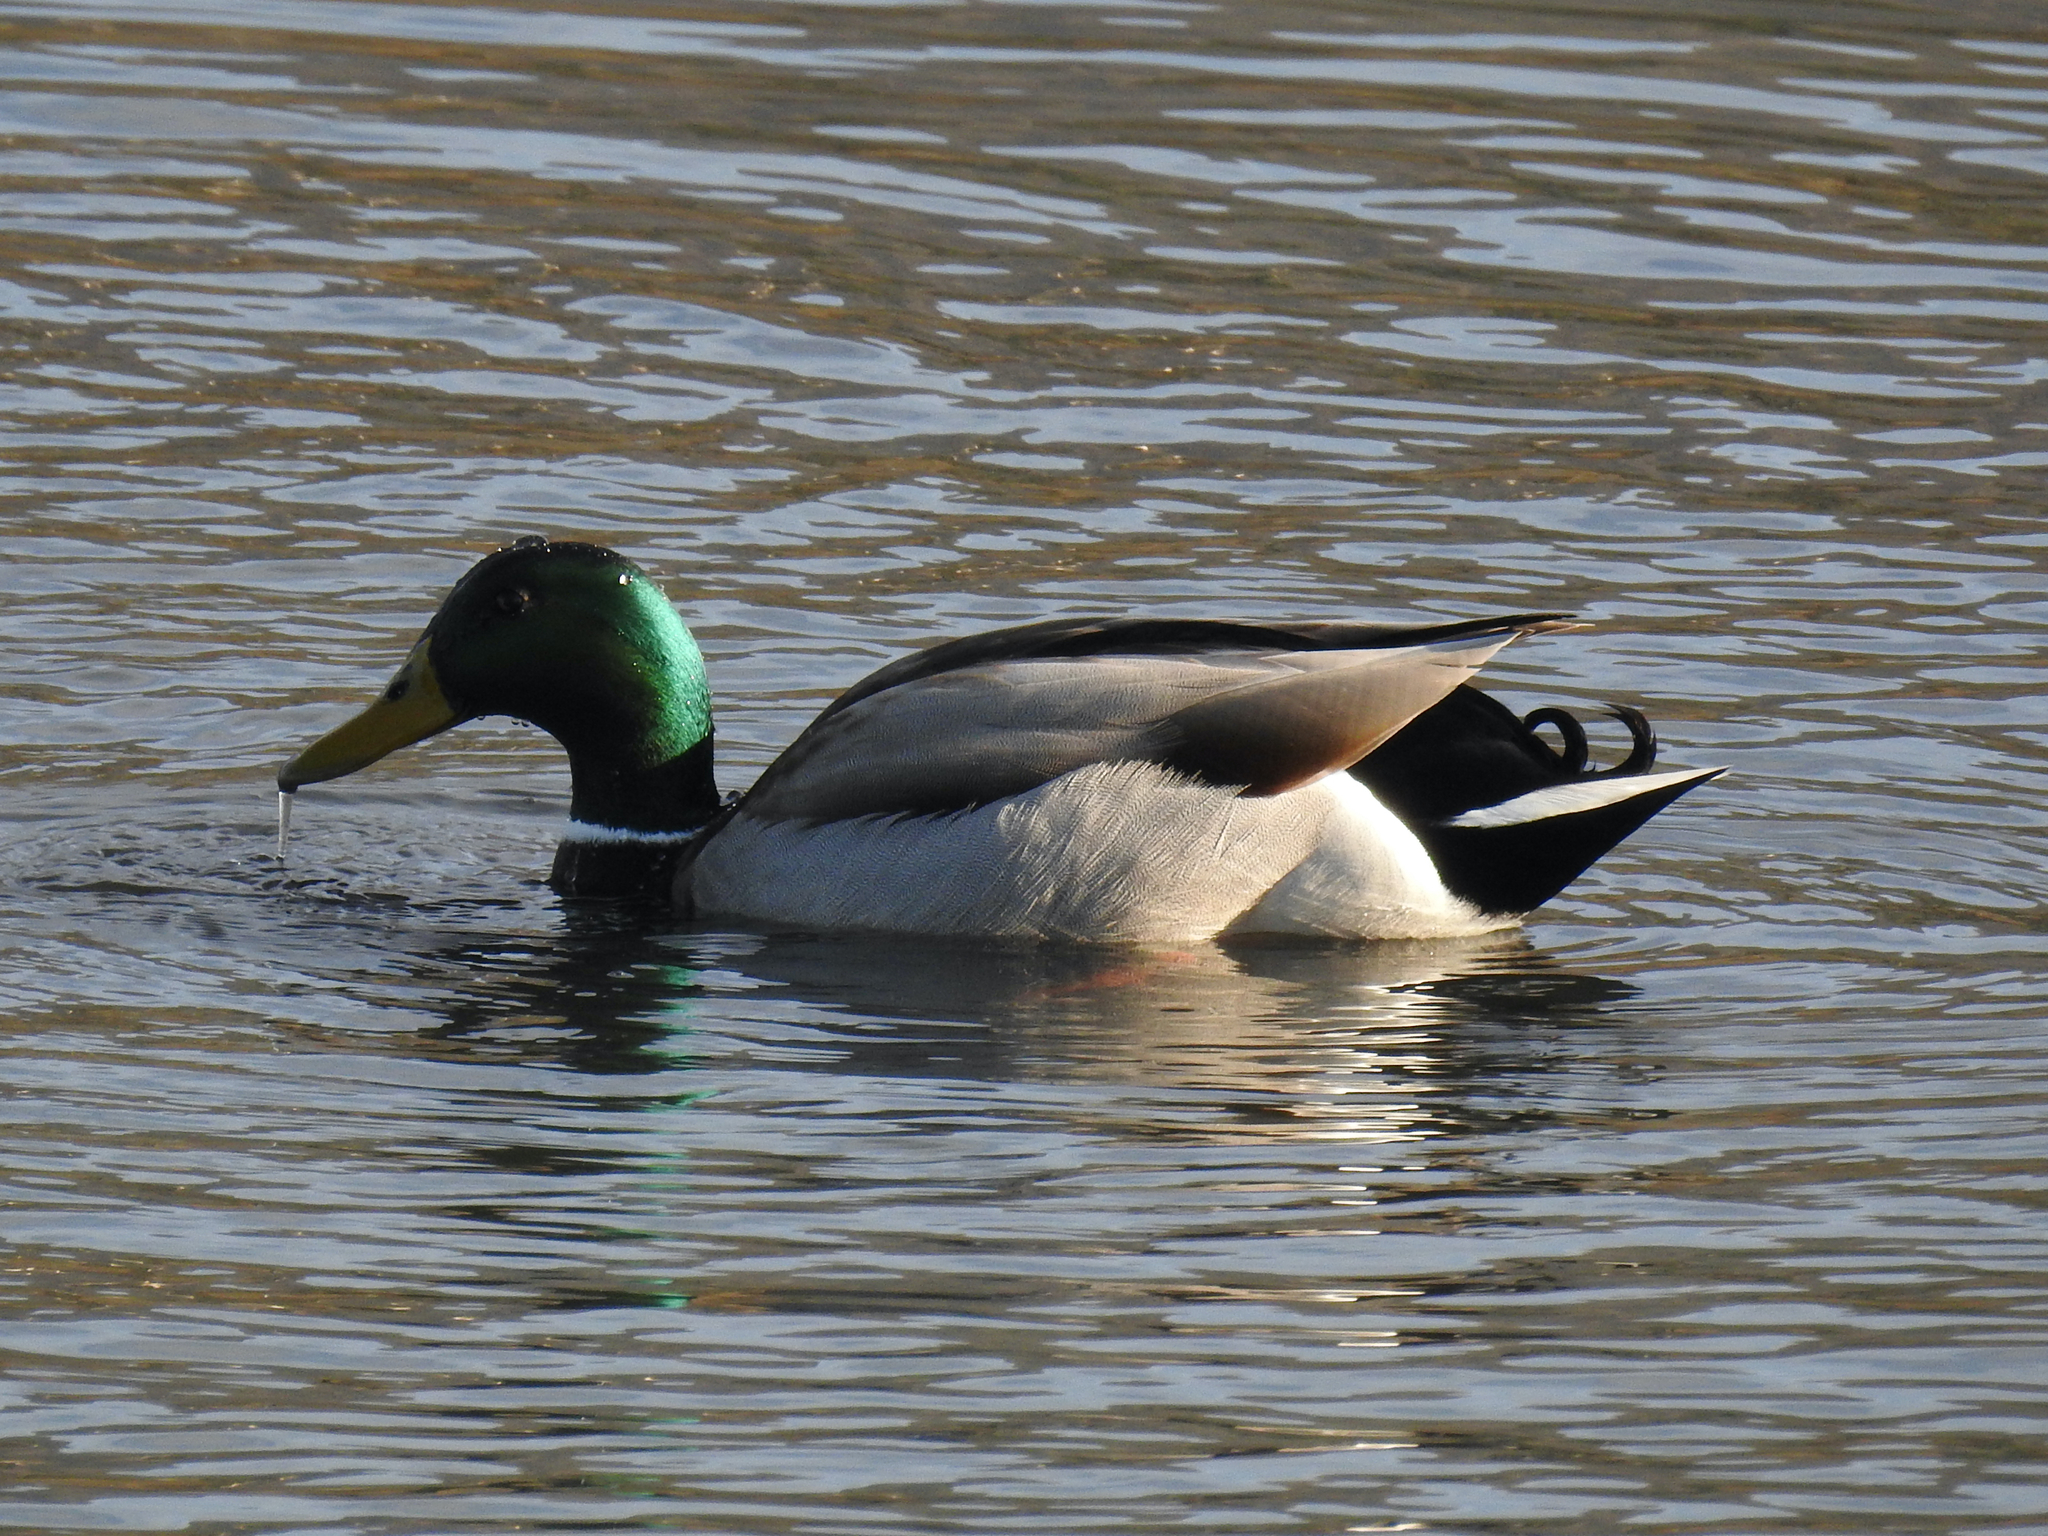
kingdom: Animalia
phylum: Chordata
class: Aves
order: Anseriformes
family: Anatidae
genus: Anas
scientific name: Anas platyrhynchos
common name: Mallard
